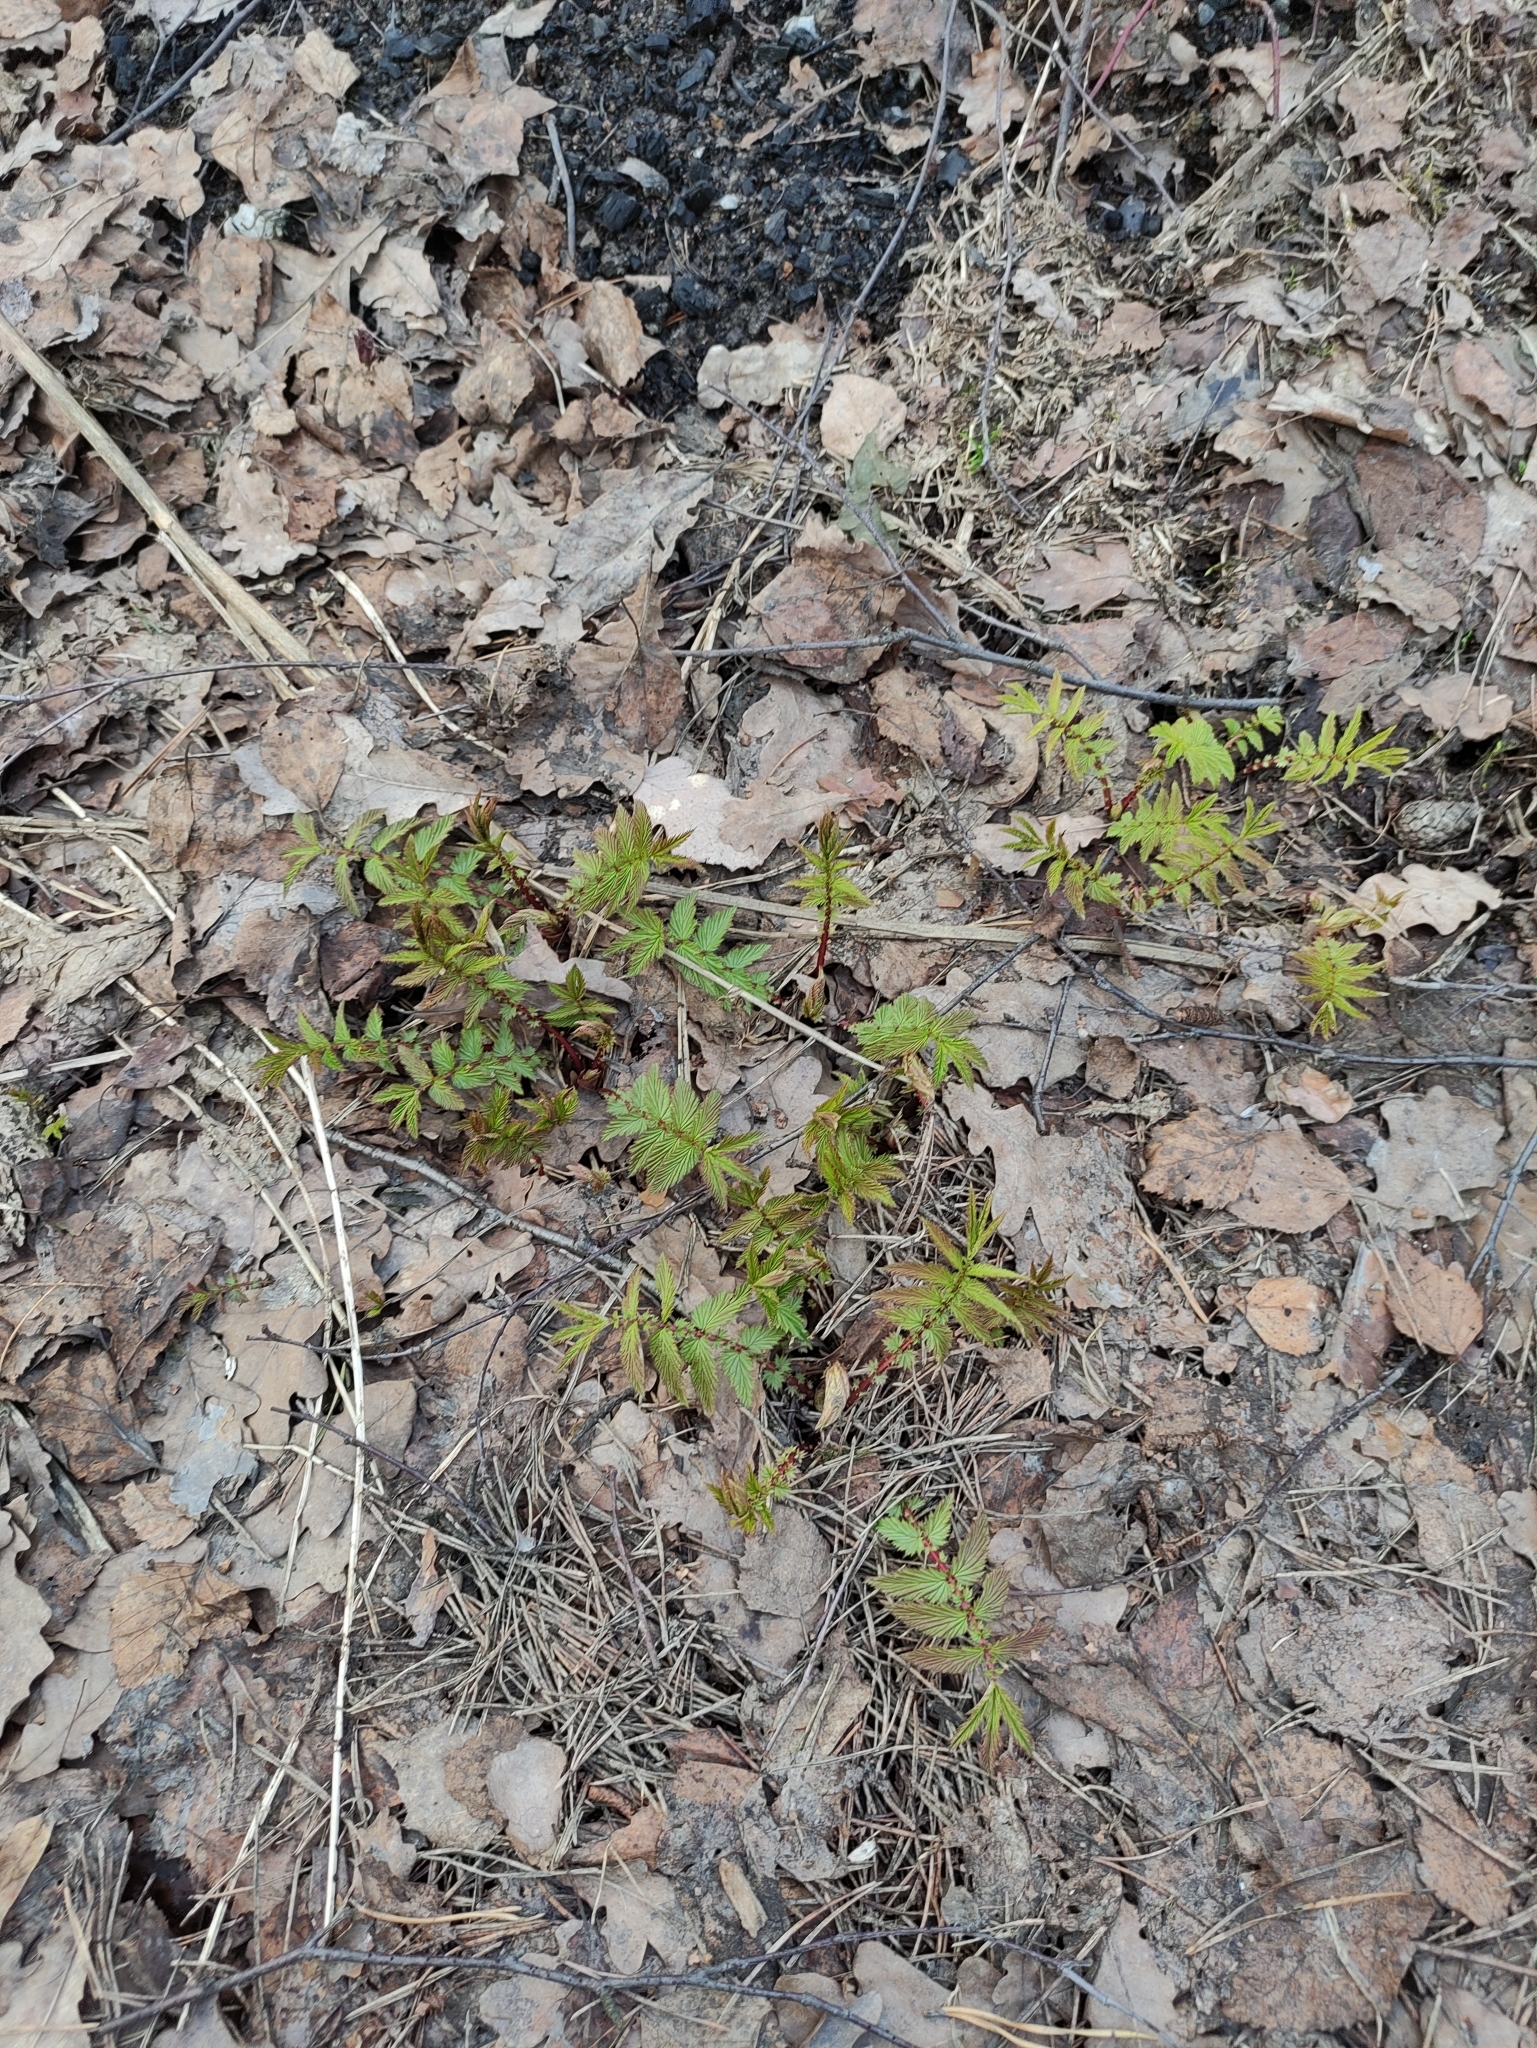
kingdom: Plantae
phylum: Tracheophyta
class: Magnoliopsida
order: Rosales
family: Rosaceae
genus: Filipendula
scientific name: Filipendula ulmaria
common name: Meadowsweet
